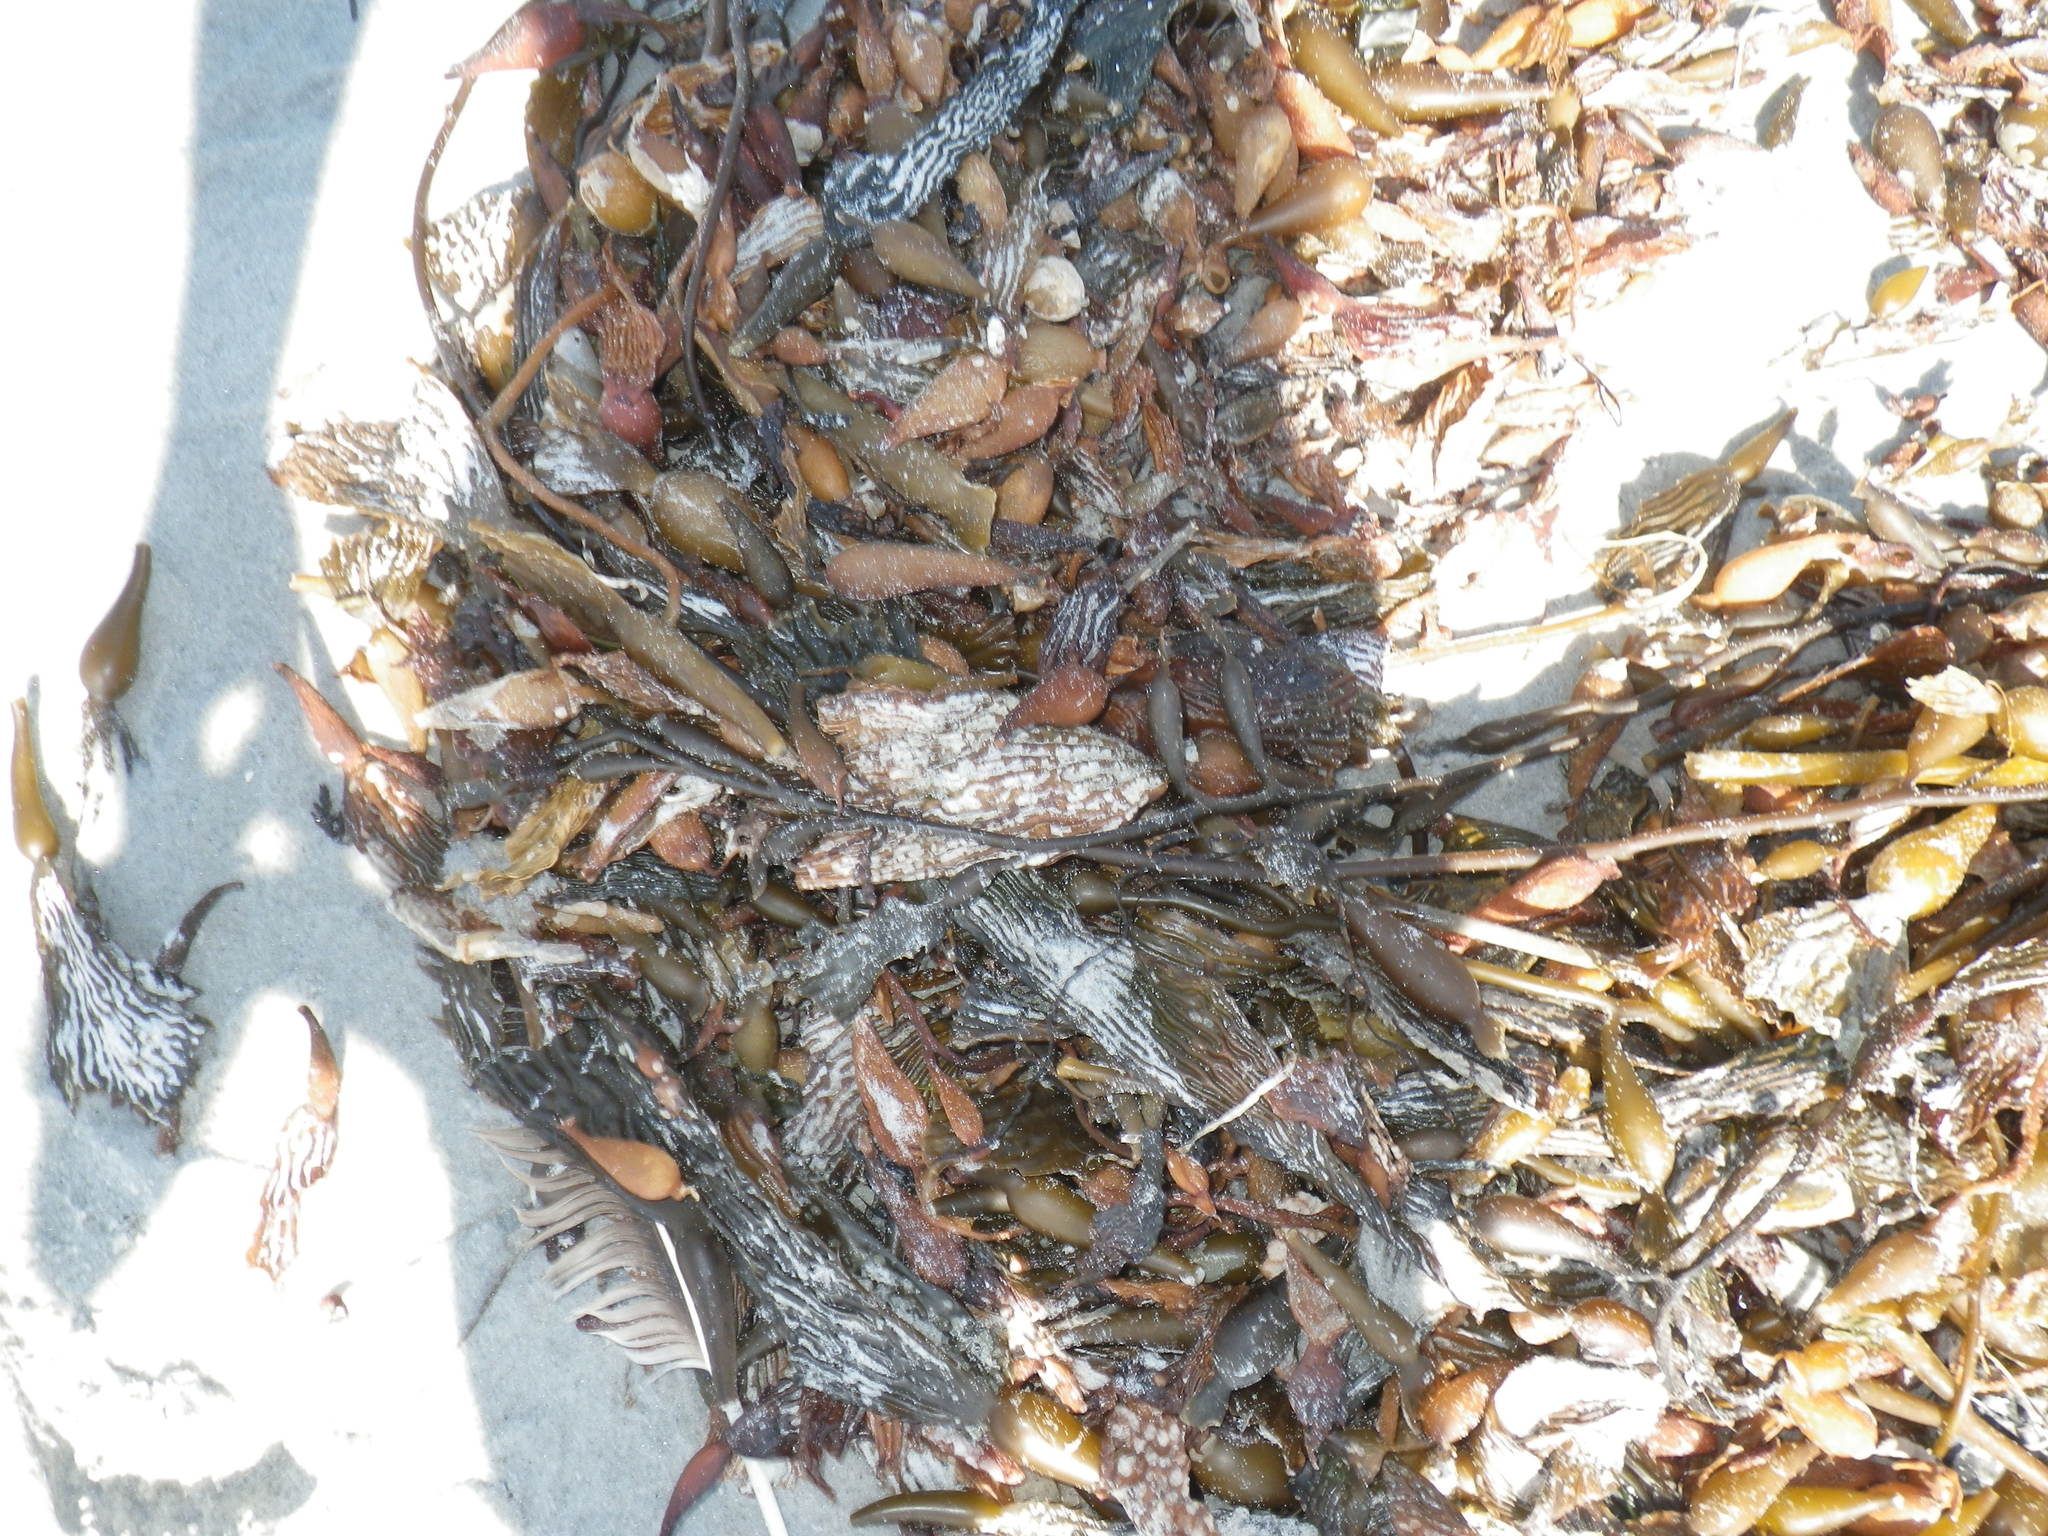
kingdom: Chromista
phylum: Ochrophyta
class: Phaeophyceae
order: Laminariales
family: Laminariaceae
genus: Macrocystis
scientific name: Macrocystis pyrifera
